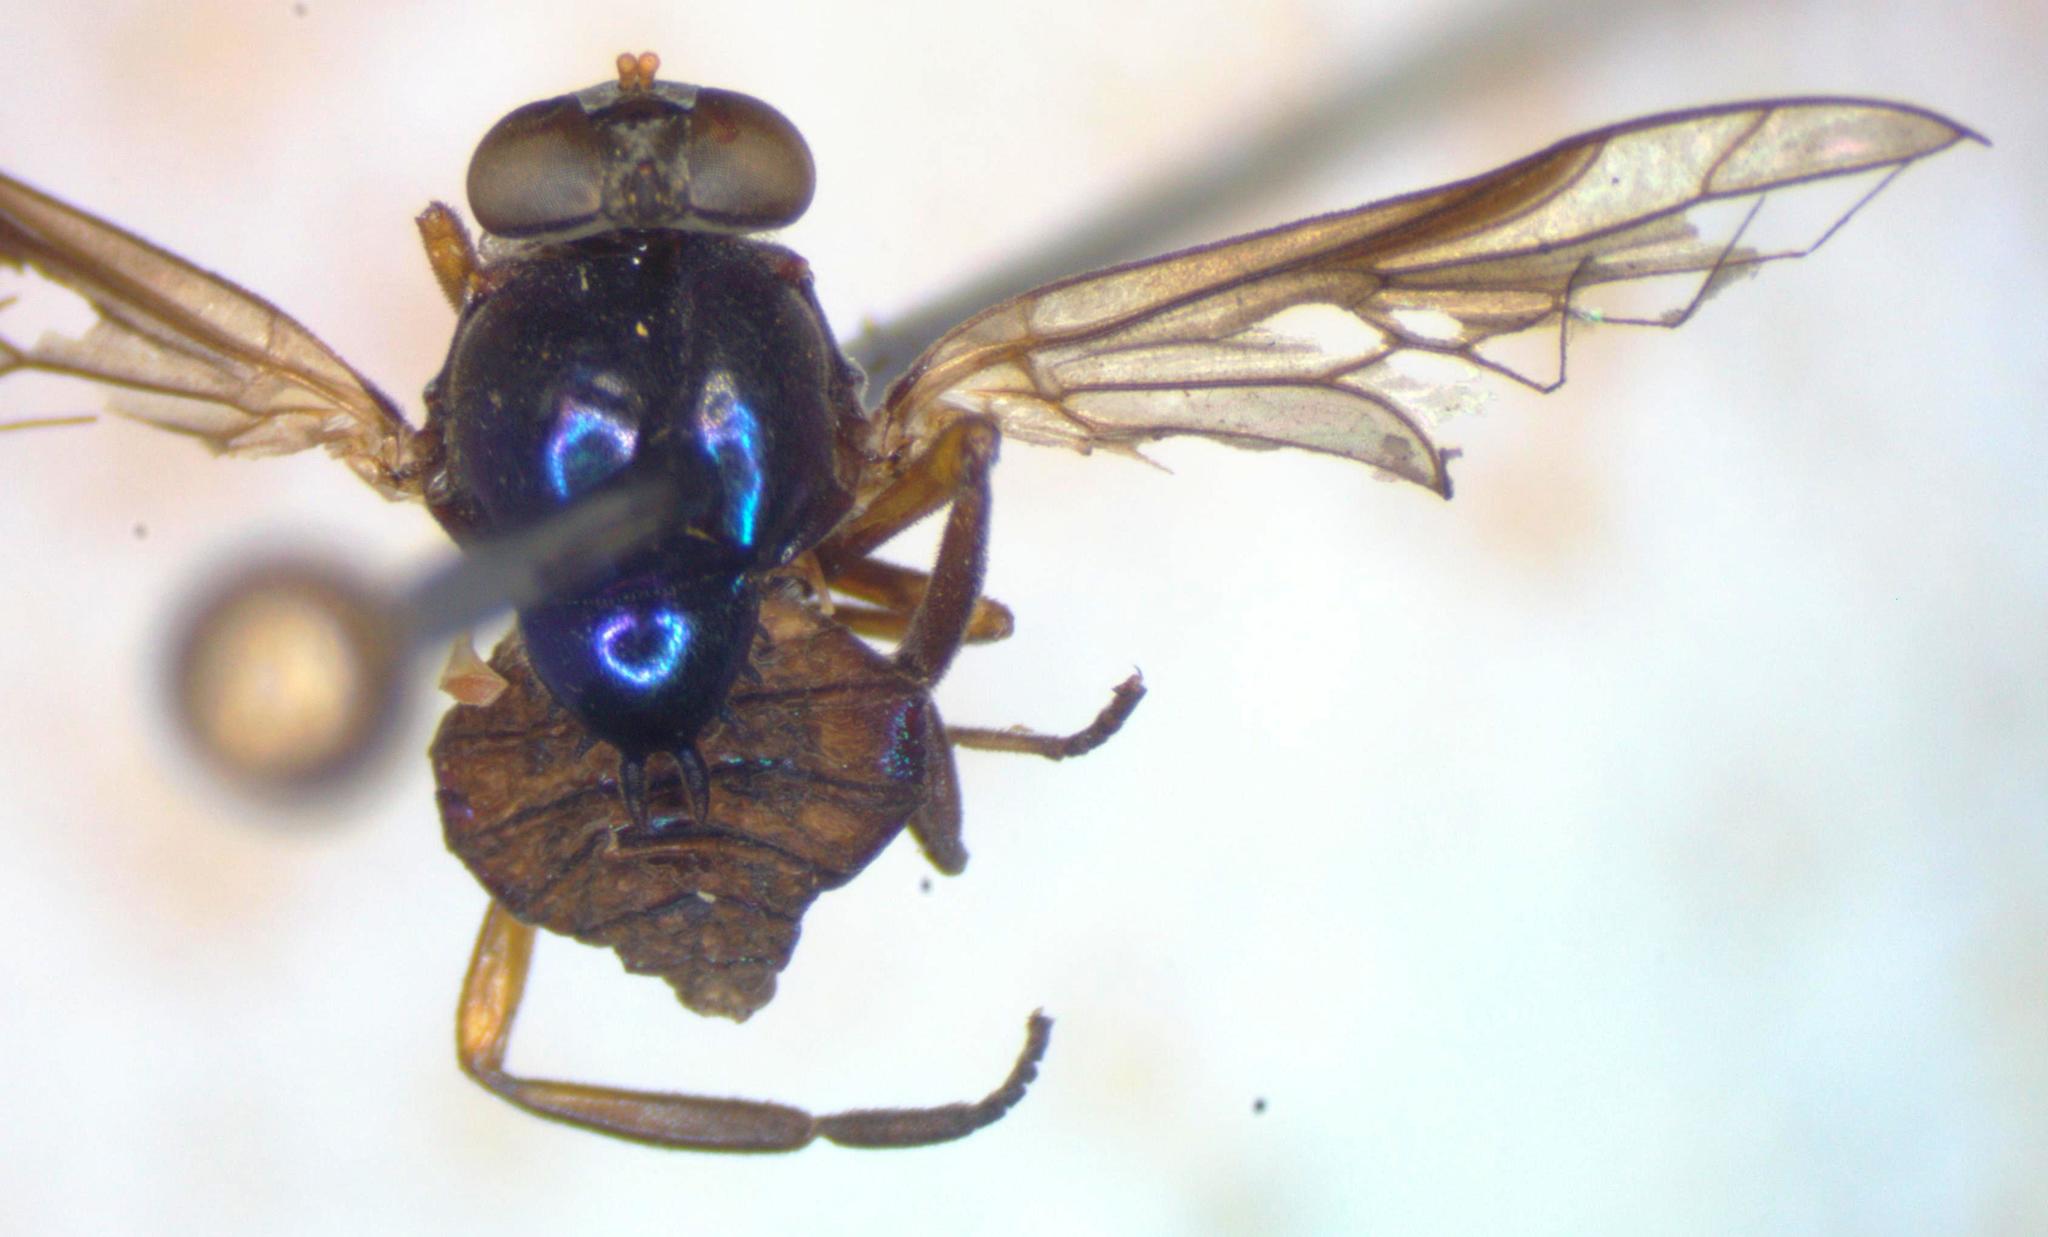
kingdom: Animalia
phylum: Arthropoda
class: Insecta
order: Diptera
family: Stratiomyidae
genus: Heteracanthia
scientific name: Heteracanthia ruficornis
